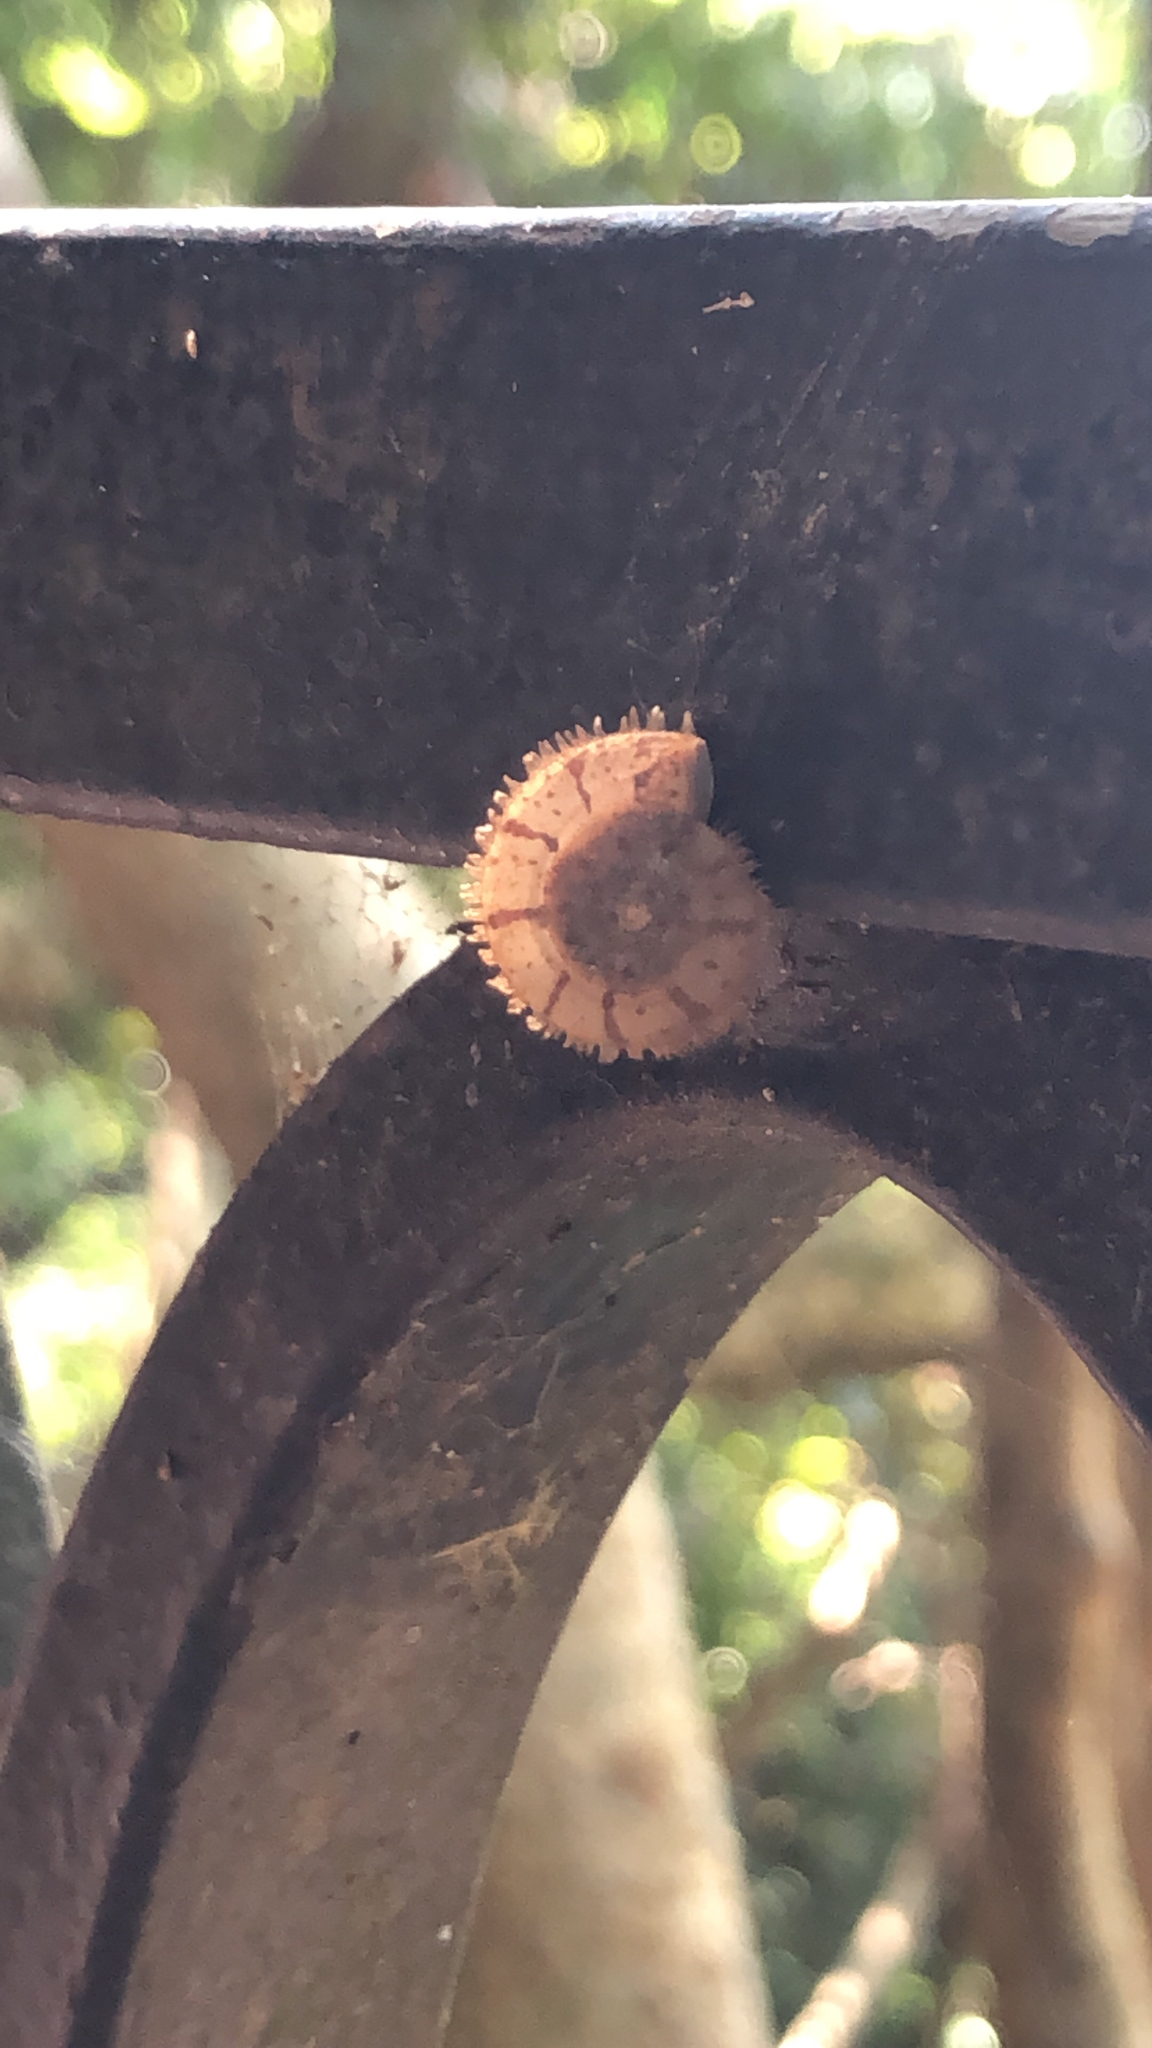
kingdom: Animalia
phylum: Mollusca
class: Gastropoda
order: Stylommatophora
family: Camaenidae
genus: Plectotropis
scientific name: Plectotropis gerlachi
